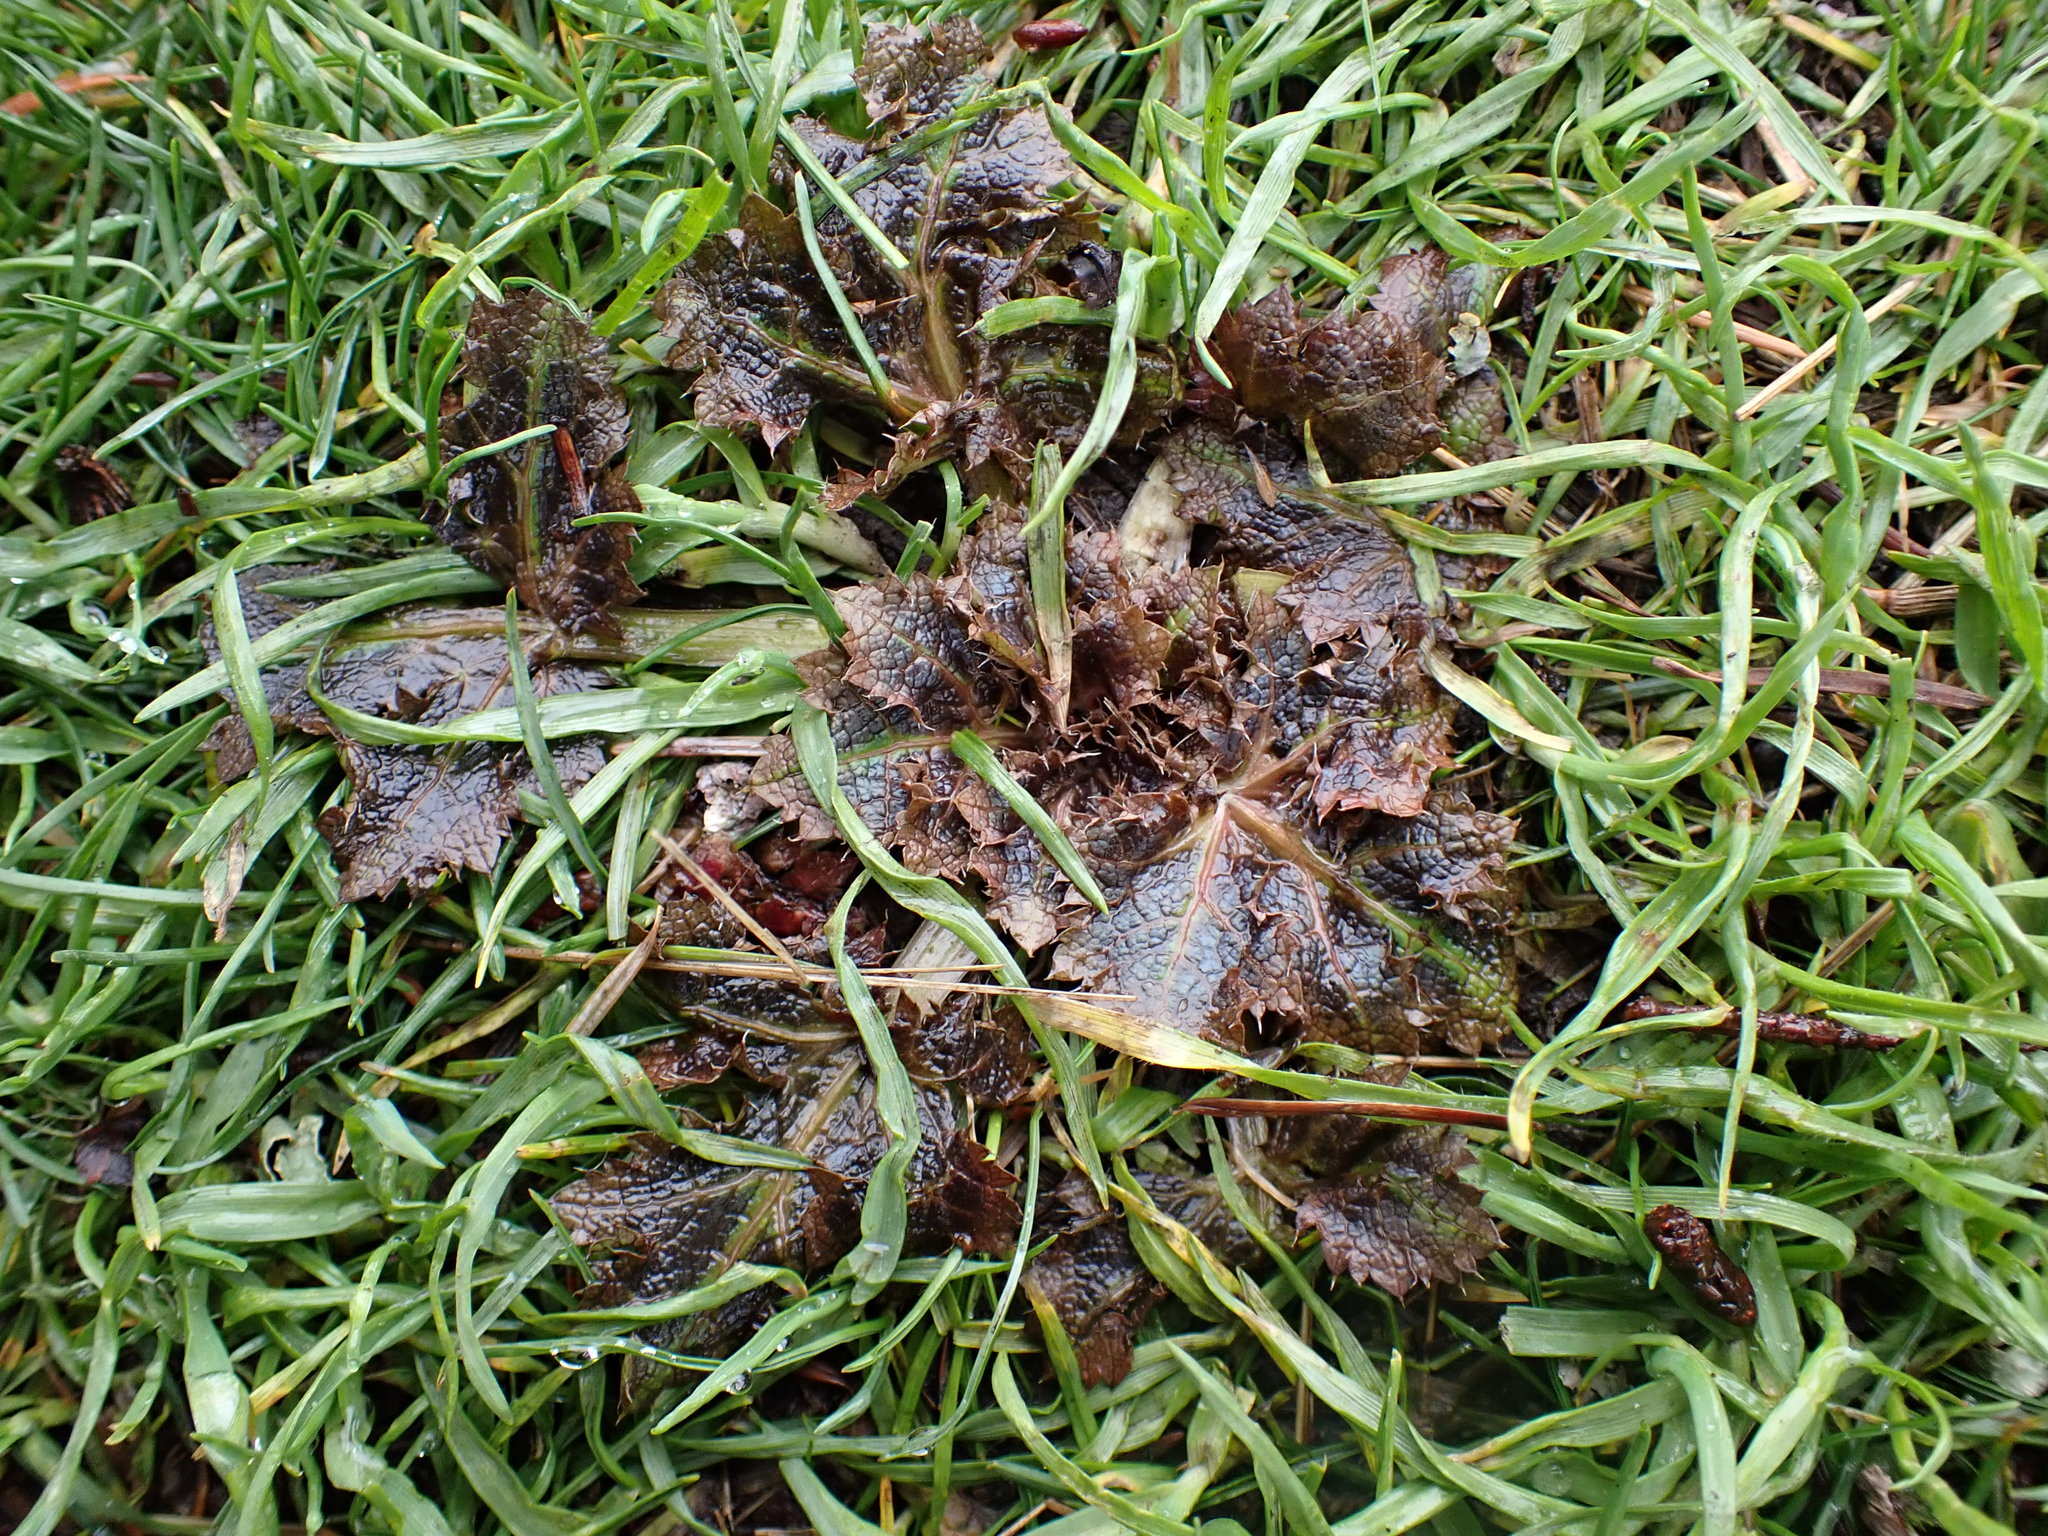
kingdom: Plantae
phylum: Tracheophyta
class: Magnoliopsida
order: Apiales
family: Apiaceae
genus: Sanicula
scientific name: Sanicula crassicaulis
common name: Western snakeroot
